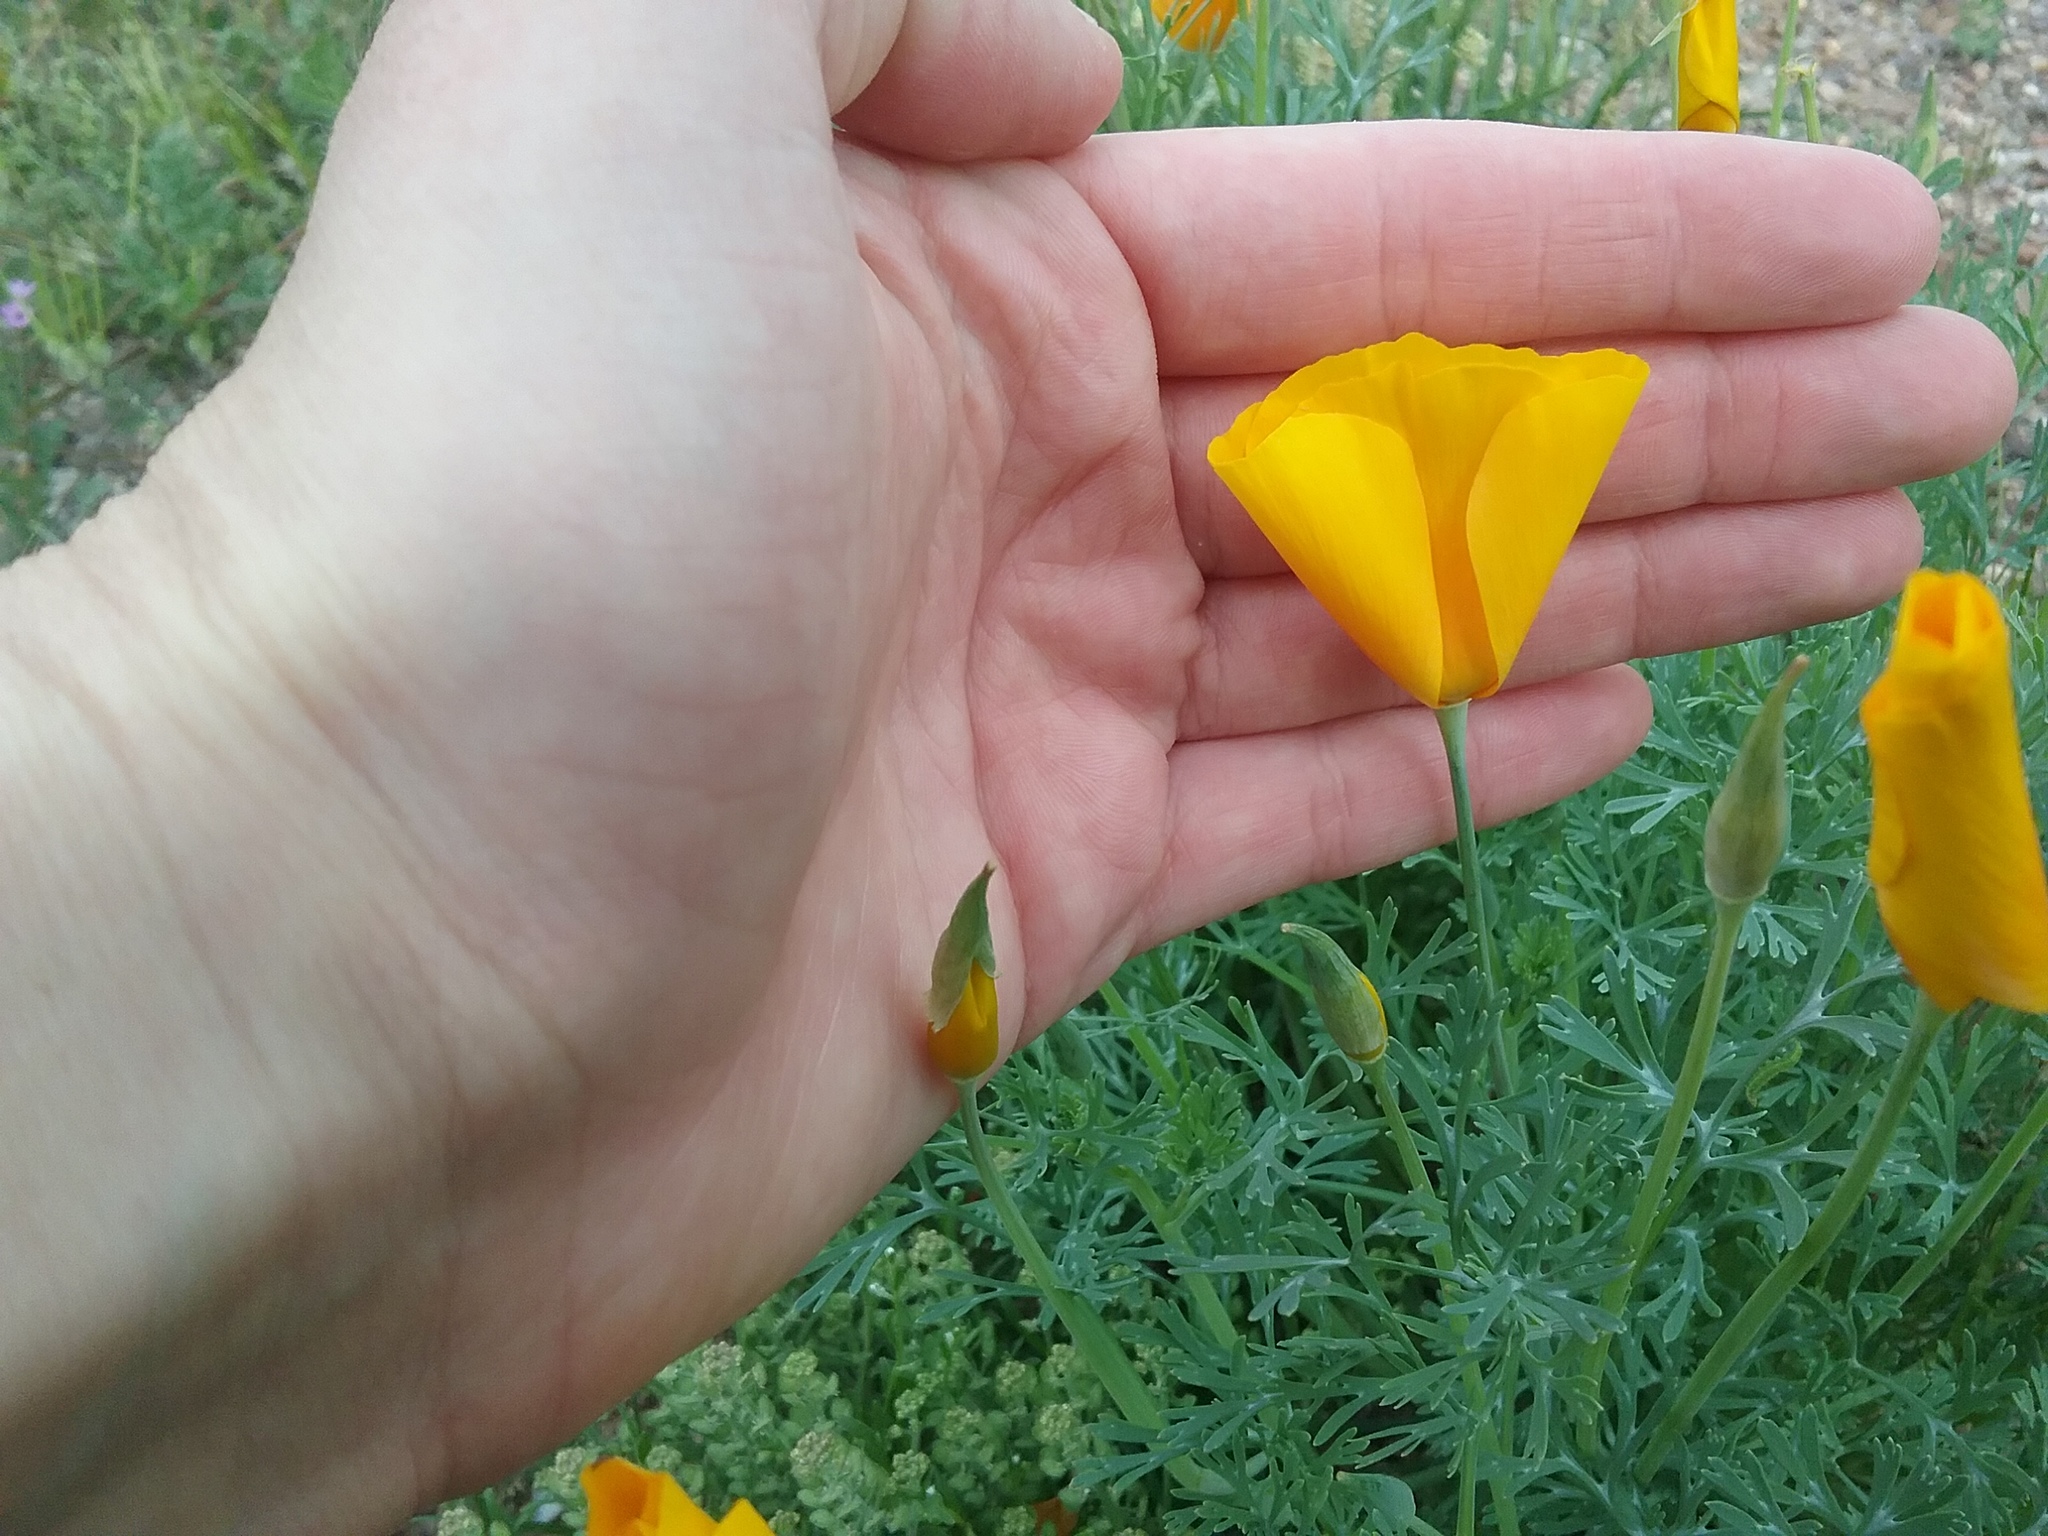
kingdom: Plantae
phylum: Tracheophyta
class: Magnoliopsida
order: Ranunculales
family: Papaveraceae
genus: Eschscholzia
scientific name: Eschscholzia californica
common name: California poppy
